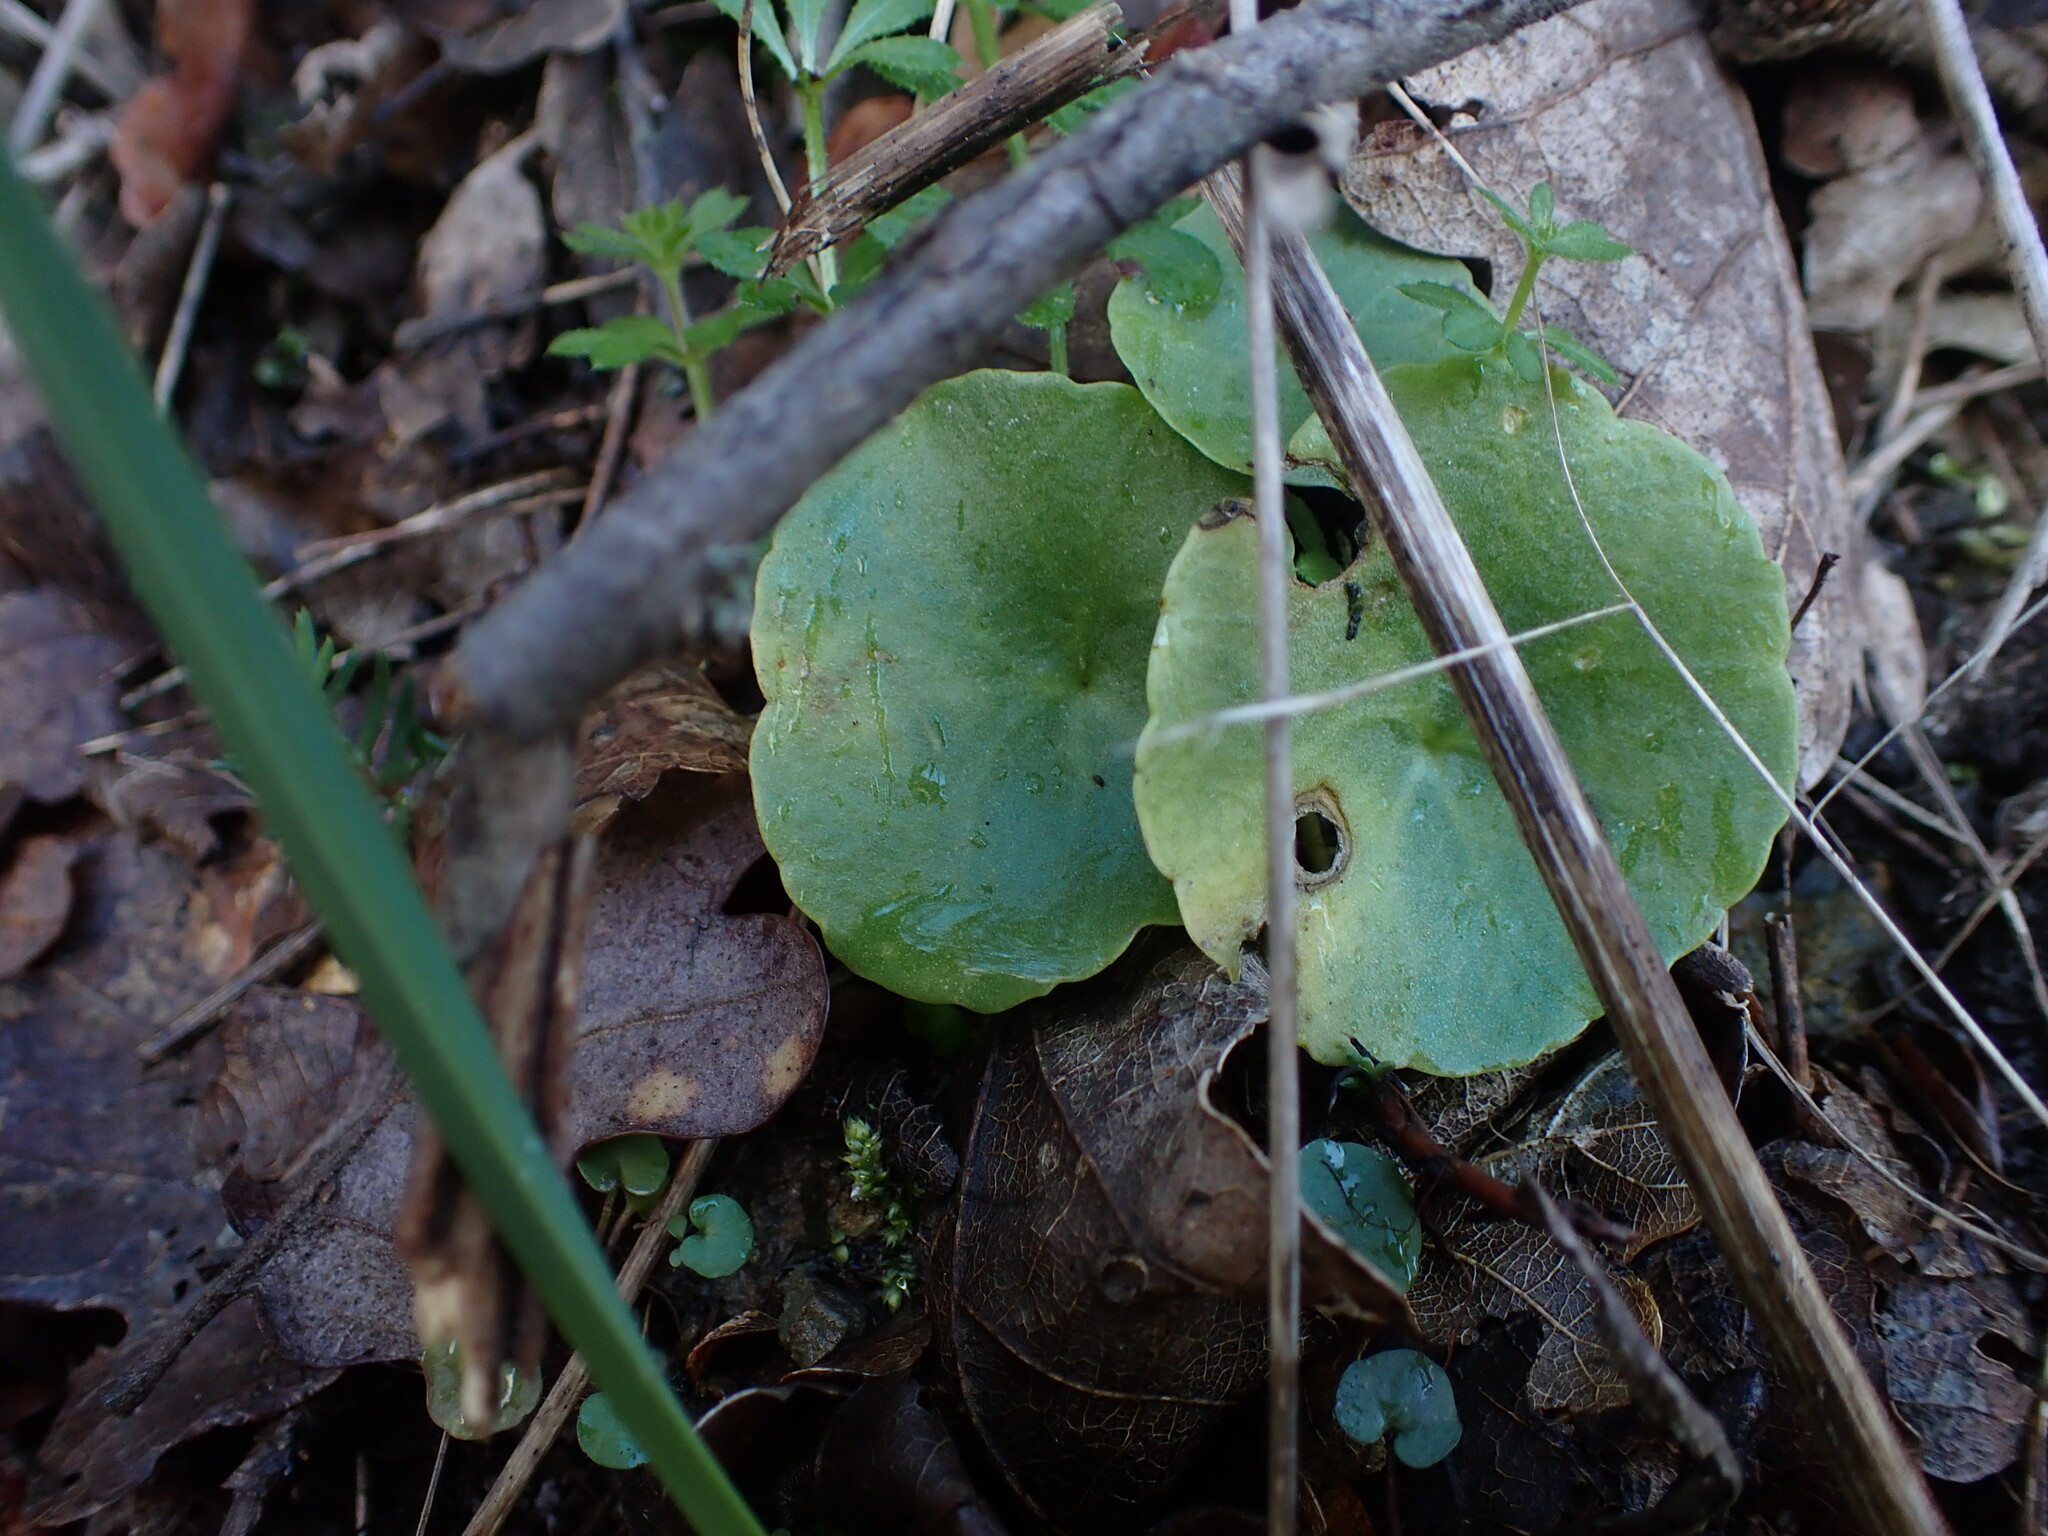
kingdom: Plantae
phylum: Tracheophyta
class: Magnoliopsida
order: Saxifragales
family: Crassulaceae
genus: Umbilicus
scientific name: Umbilicus rupestris
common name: Navelwort
